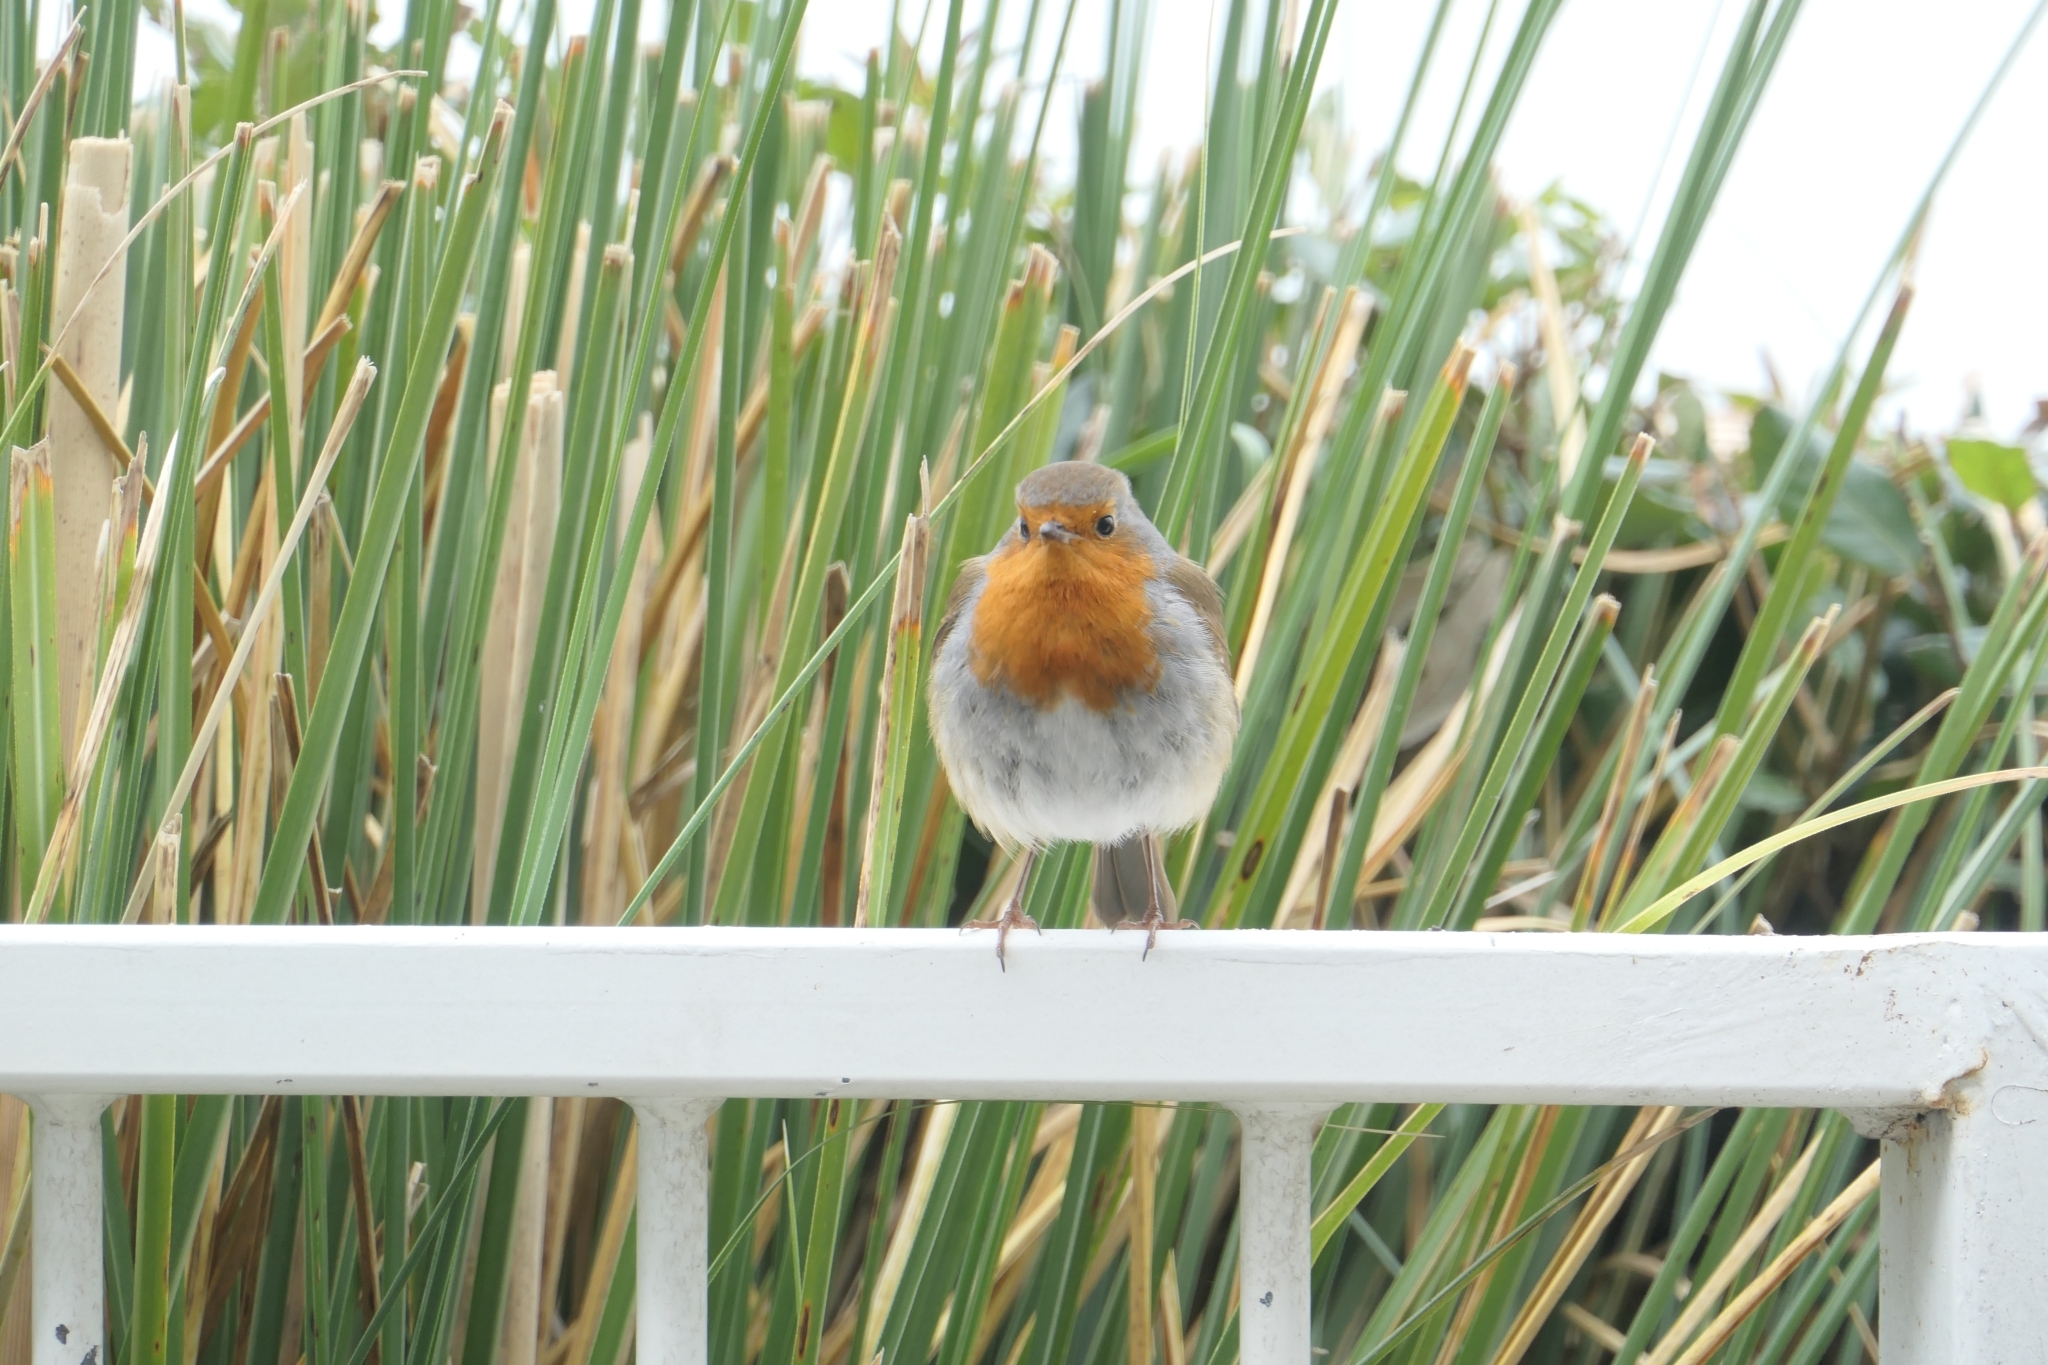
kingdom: Animalia
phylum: Chordata
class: Aves
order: Passeriformes
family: Muscicapidae
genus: Erithacus
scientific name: Erithacus rubecula
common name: European robin
